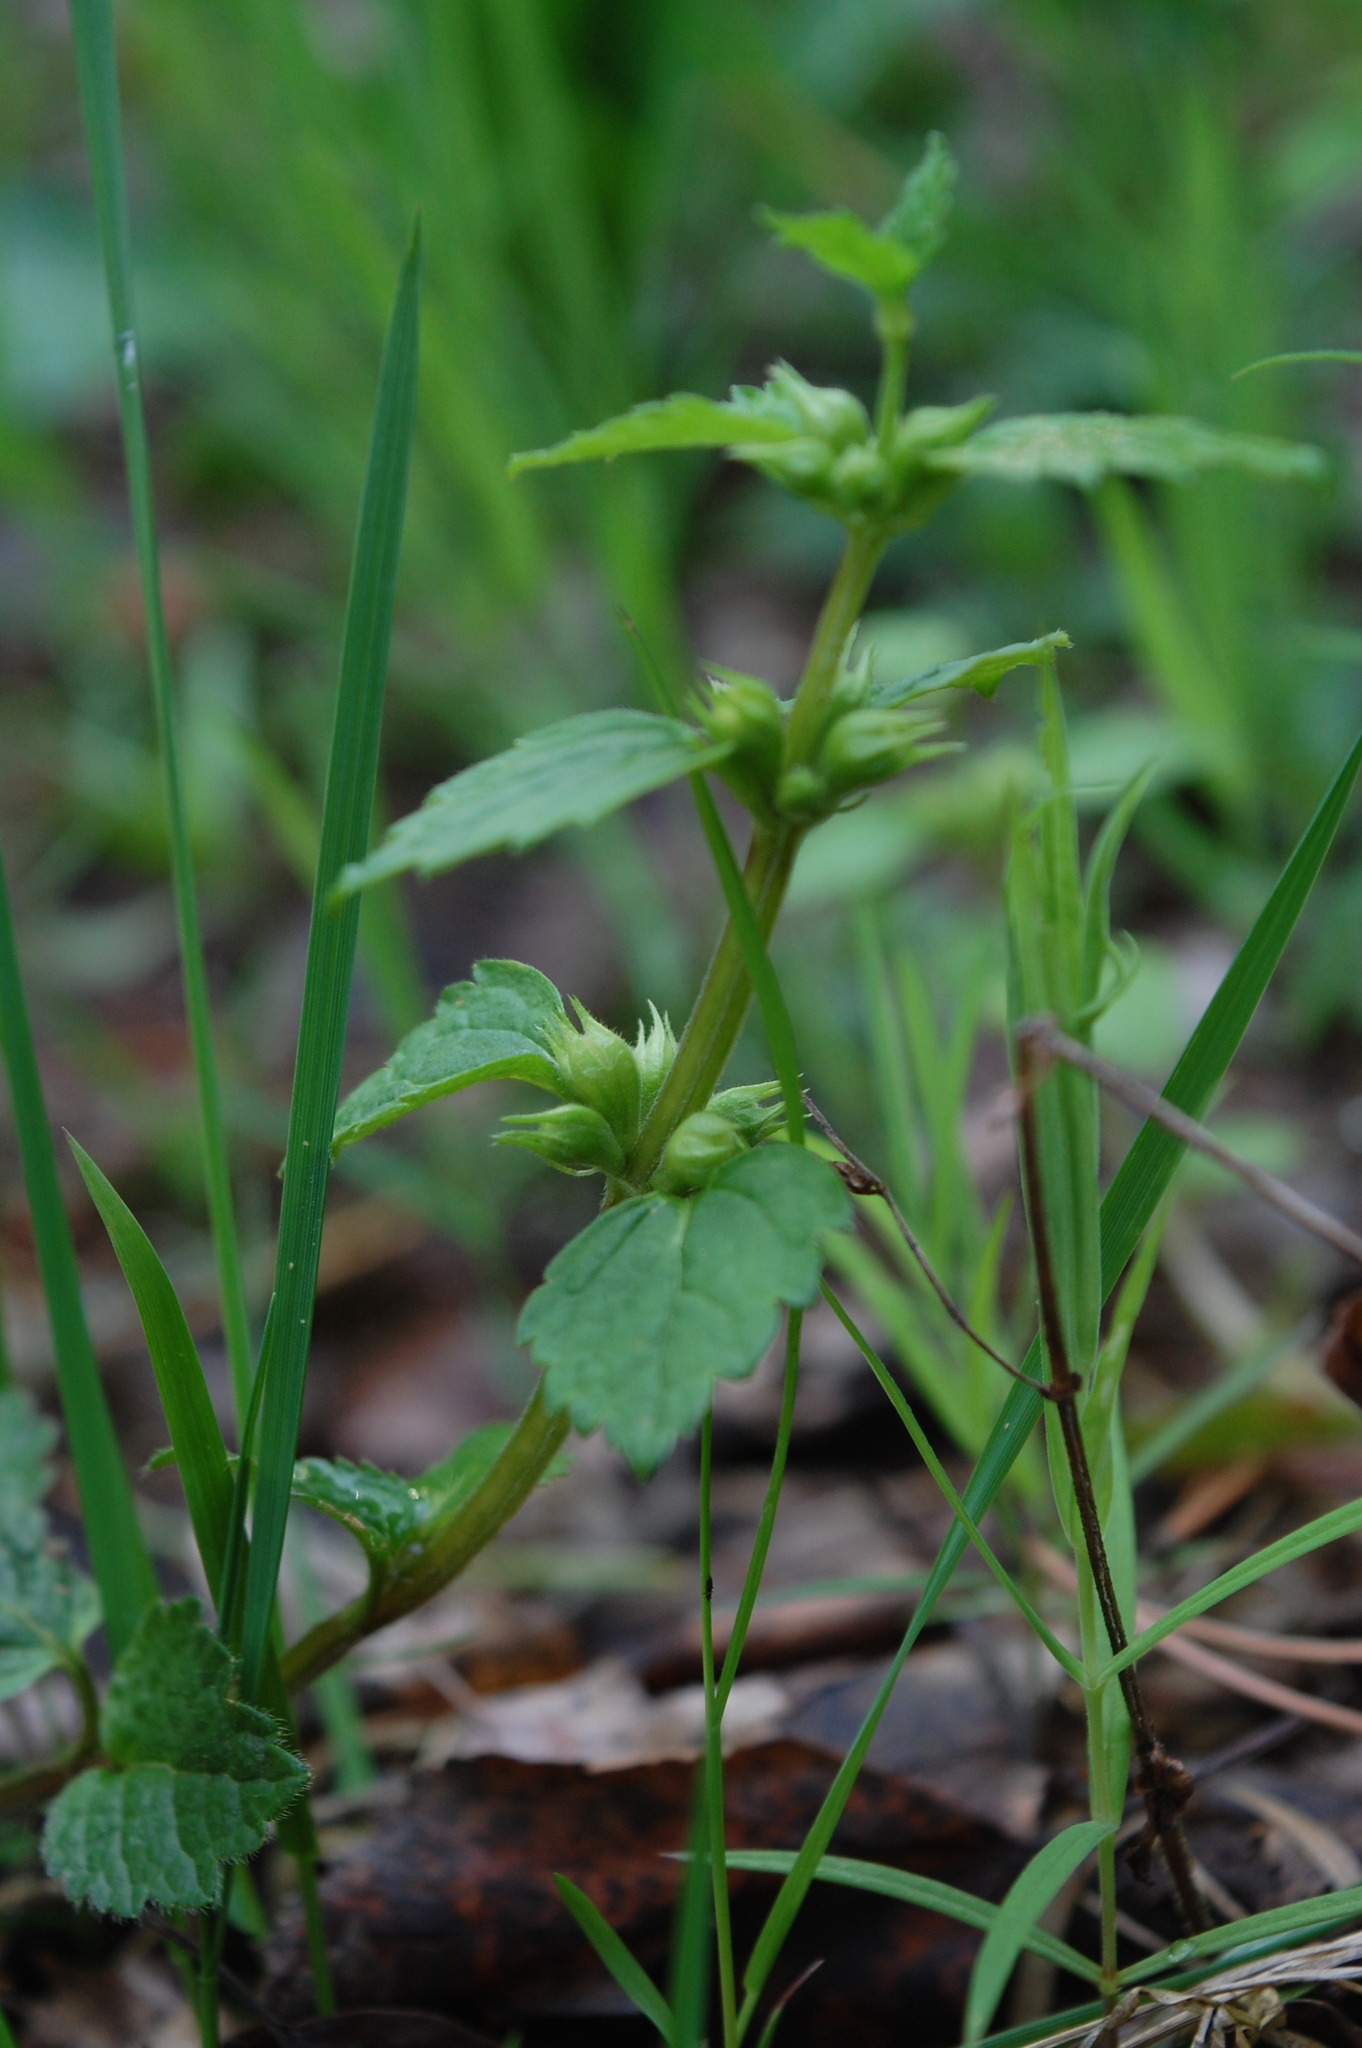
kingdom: Plantae
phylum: Tracheophyta
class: Magnoliopsida
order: Lamiales
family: Lamiaceae
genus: Lamium
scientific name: Lamium galeobdolon
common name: Yellow archangel
